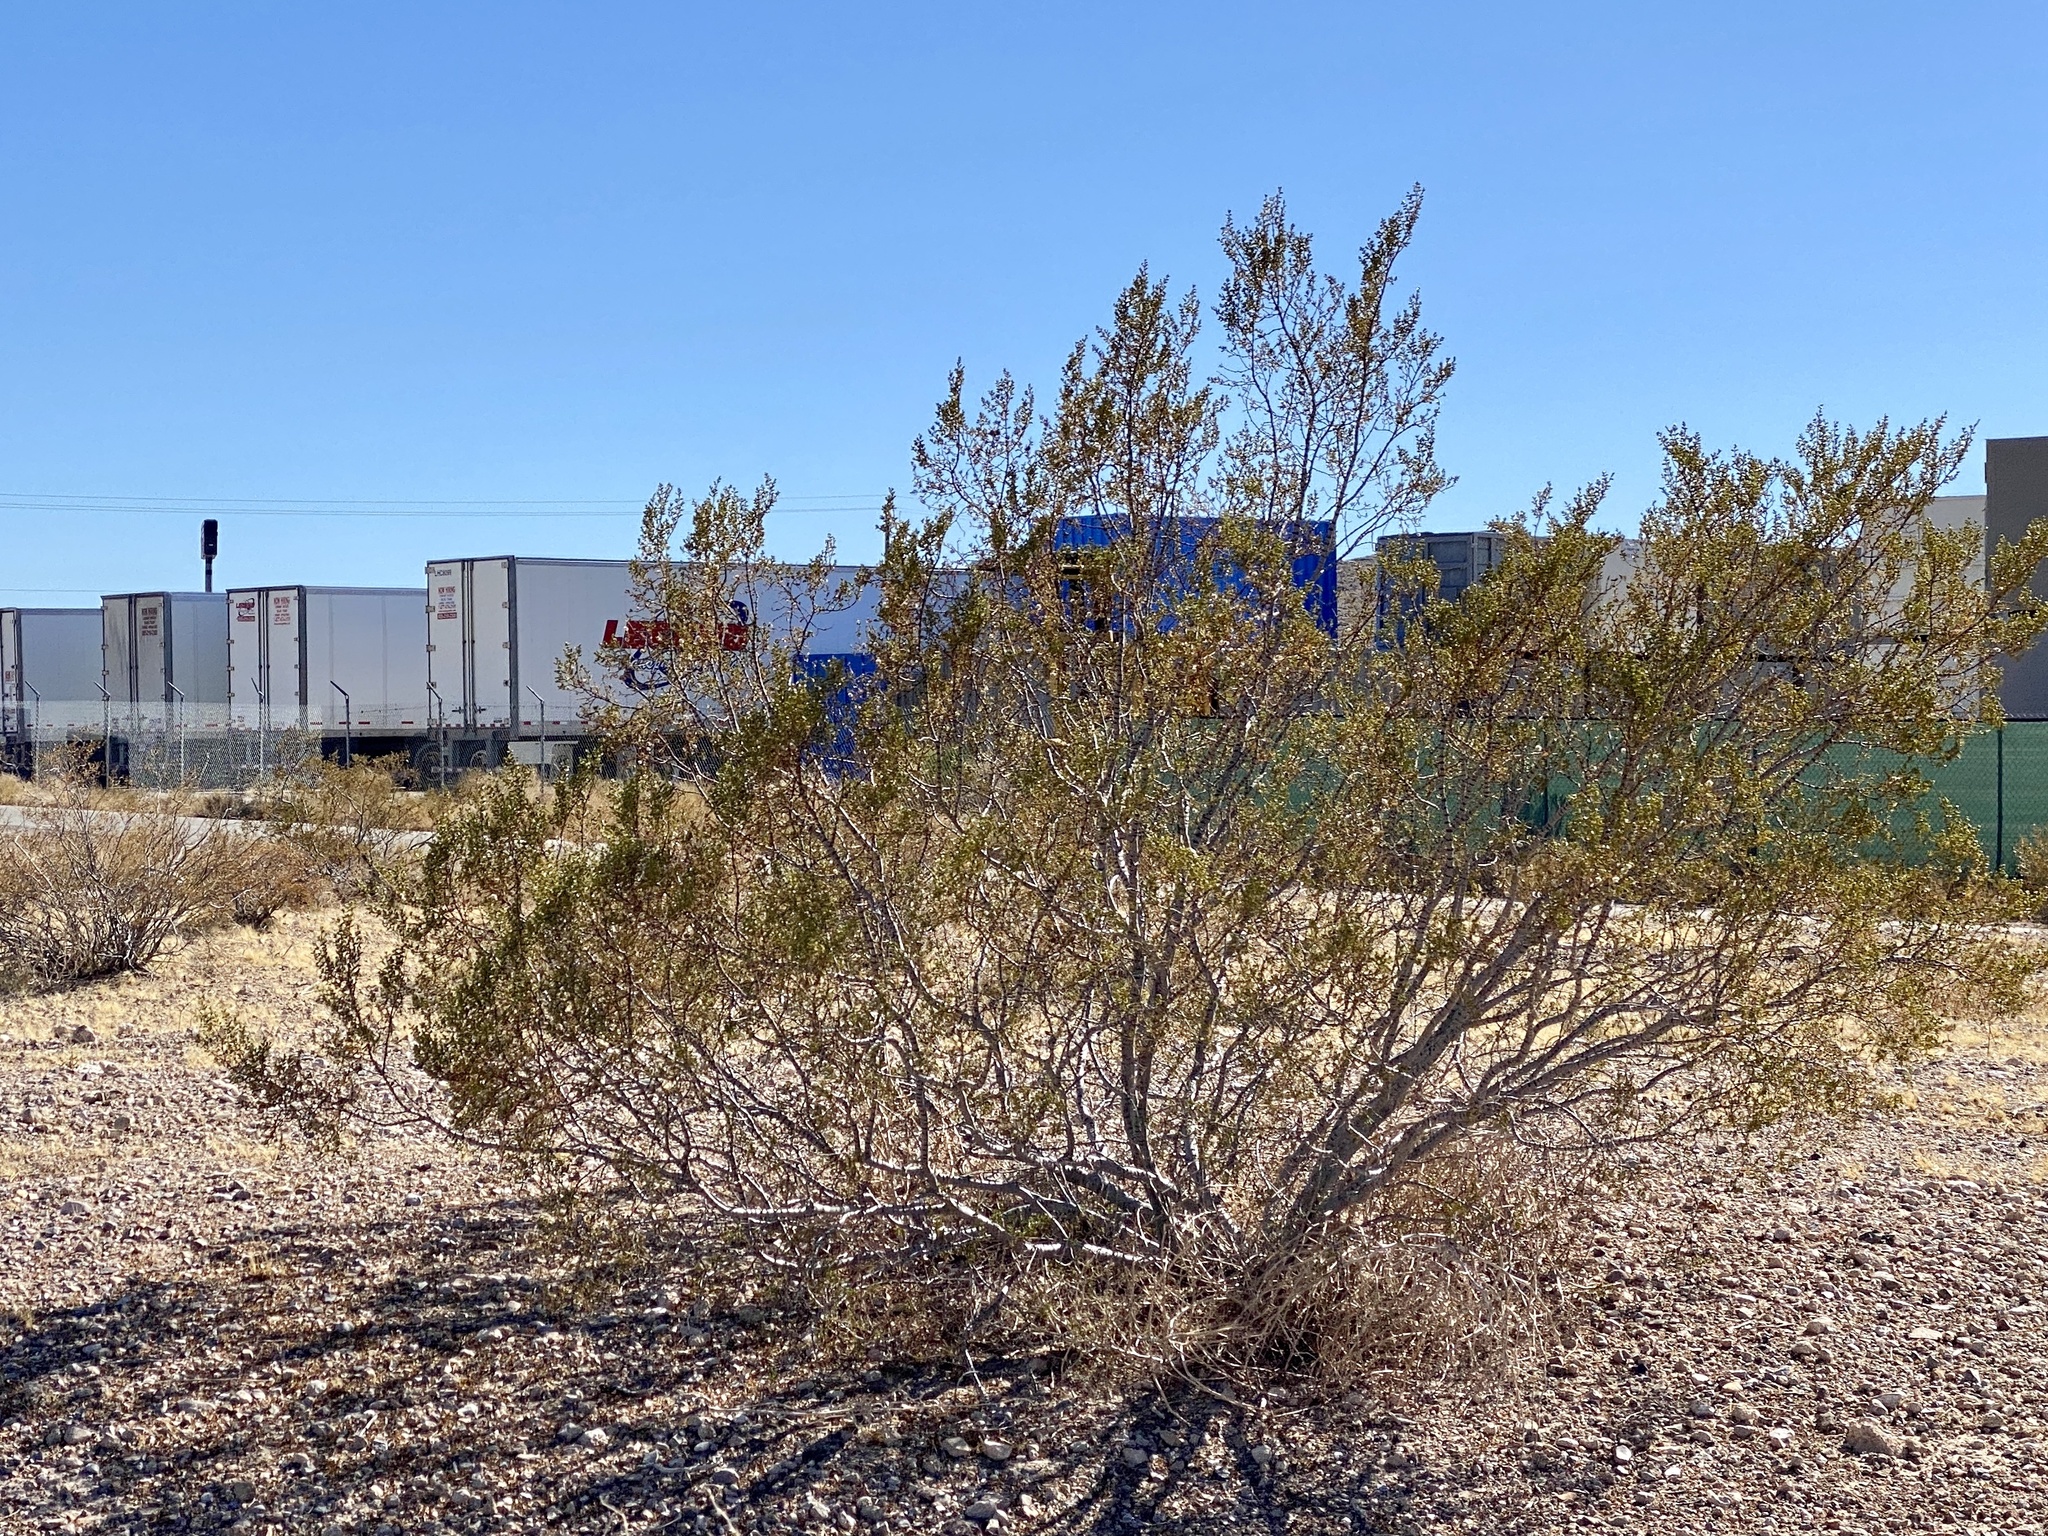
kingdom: Plantae
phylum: Tracheophyta
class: Magnoliopsida
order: Zygophyllales
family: Zygophyllaceae
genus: Larrea
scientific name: Larrea tridentata
